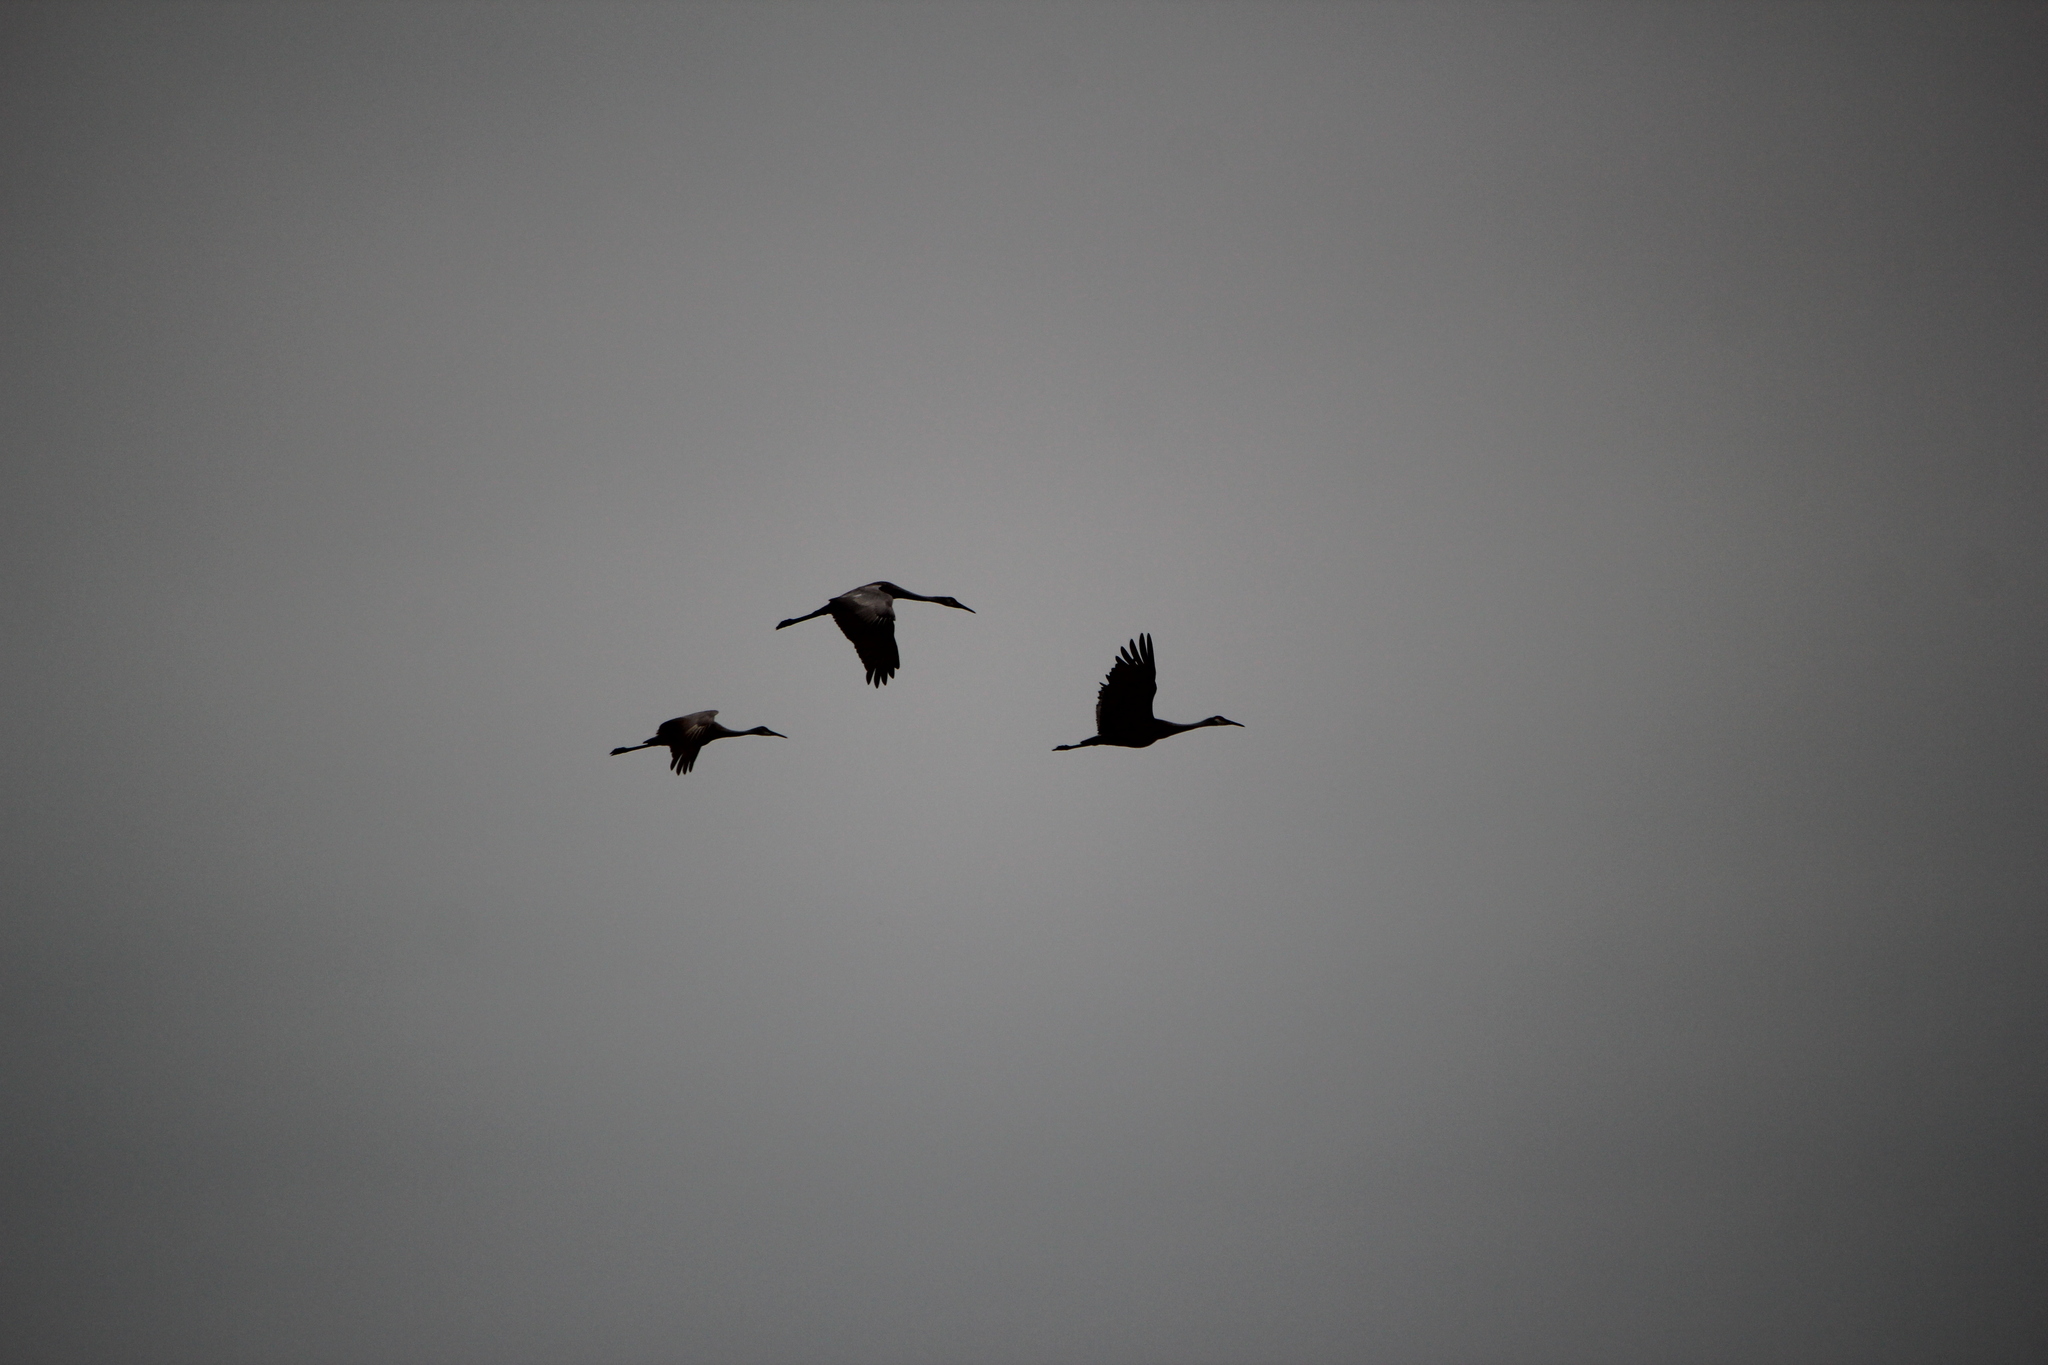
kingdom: Animalia
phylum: Chordata
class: Aves
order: Gruiformes
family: Gruidae
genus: Grus
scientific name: Grus canadensis
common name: Sandhill crane
